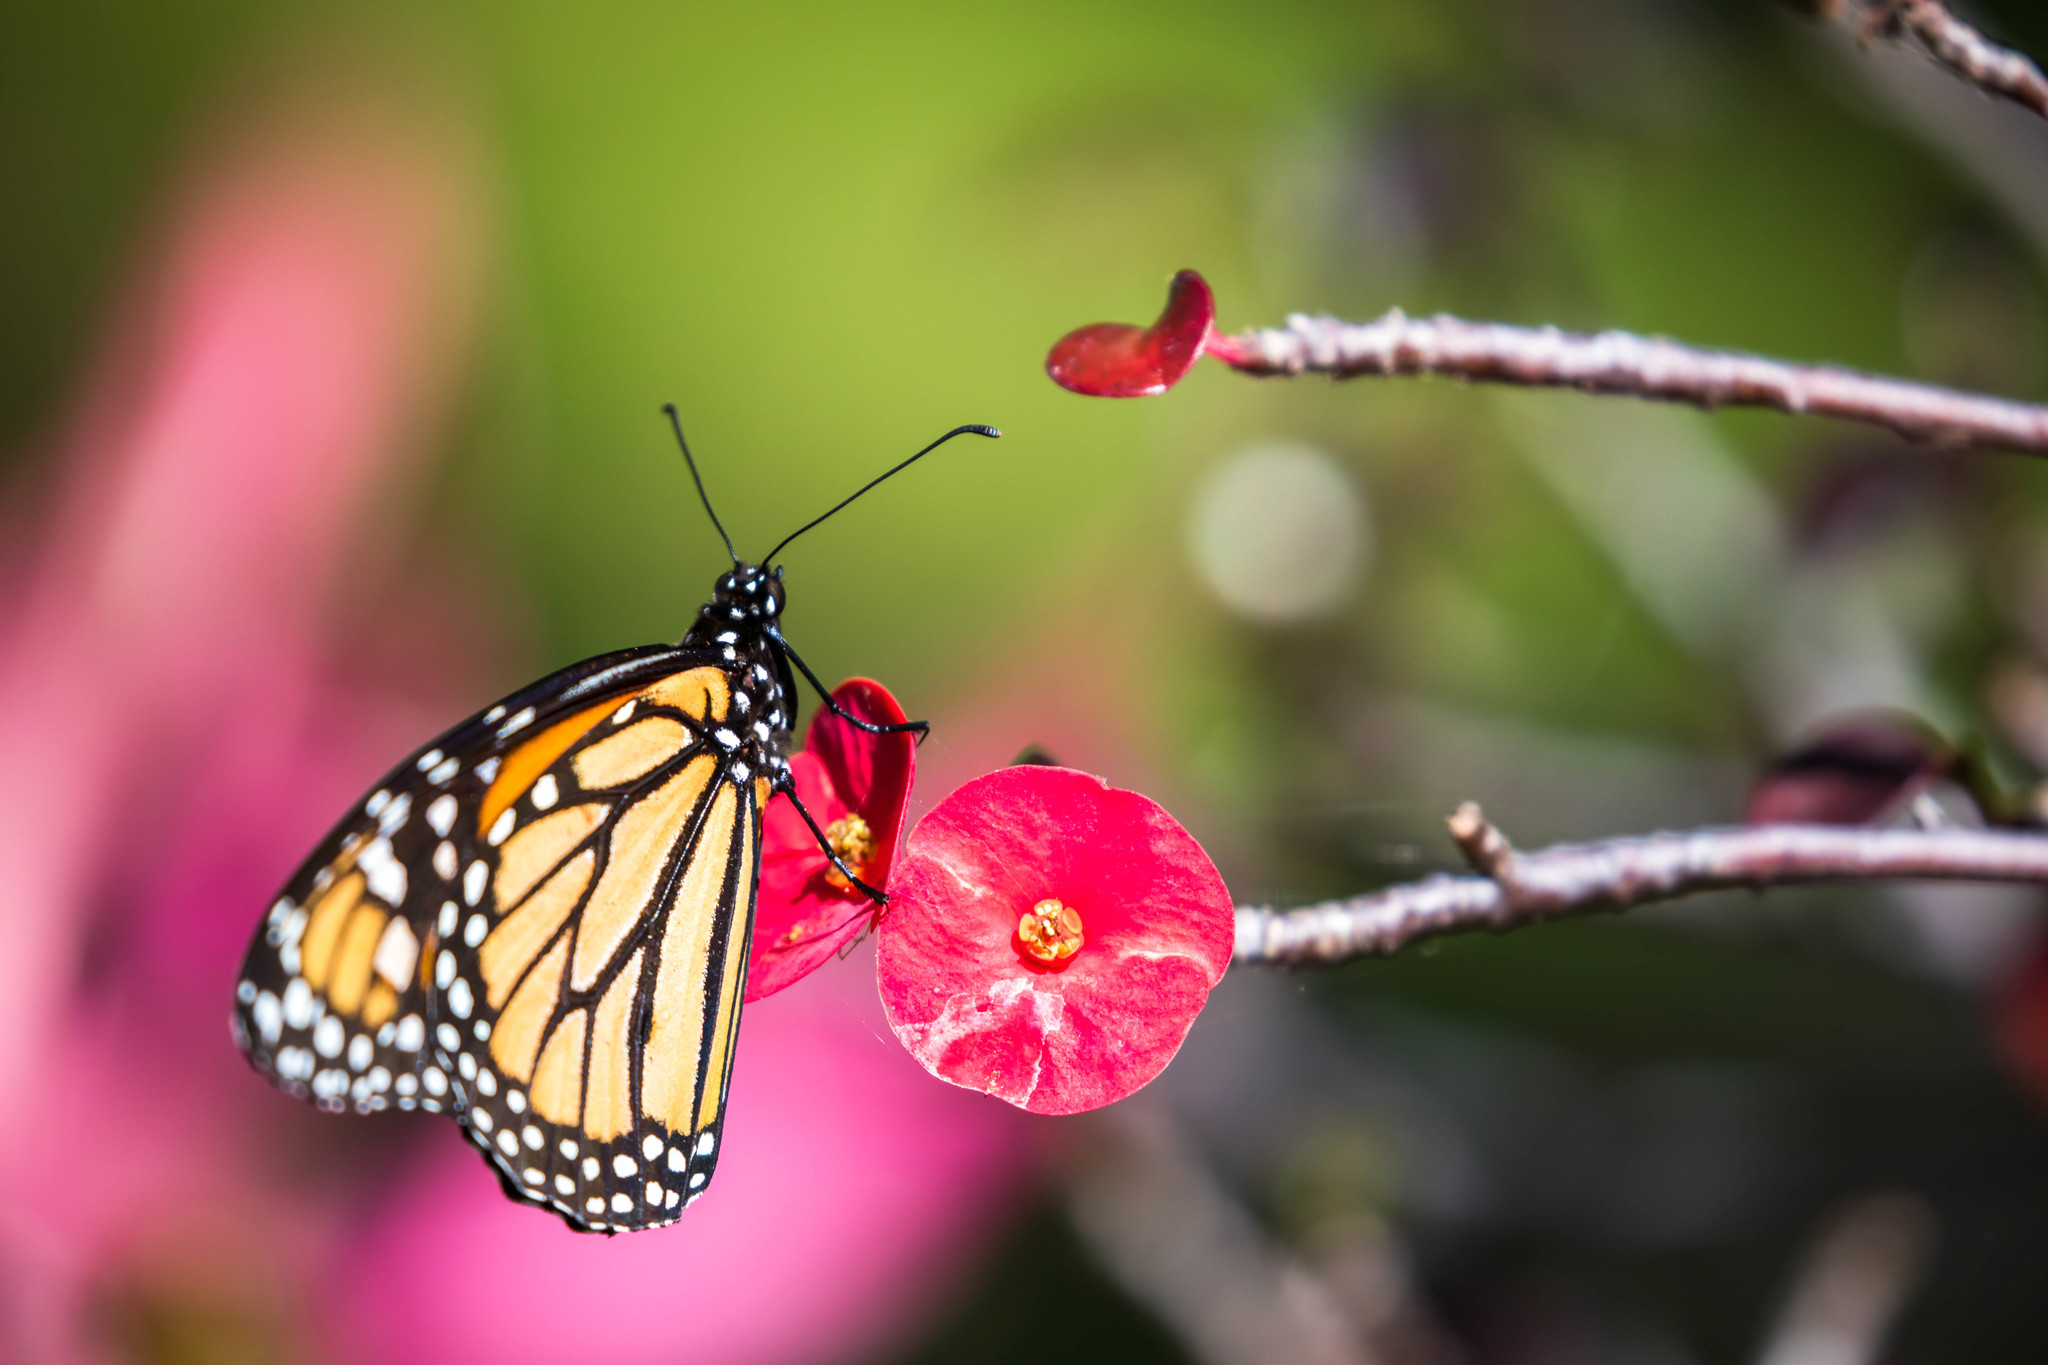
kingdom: Animalia
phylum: Arthropoda
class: Insecta
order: Lepidoptera
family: Nymphalidae
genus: Danaus
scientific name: Danaus plexippus
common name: Monarch
